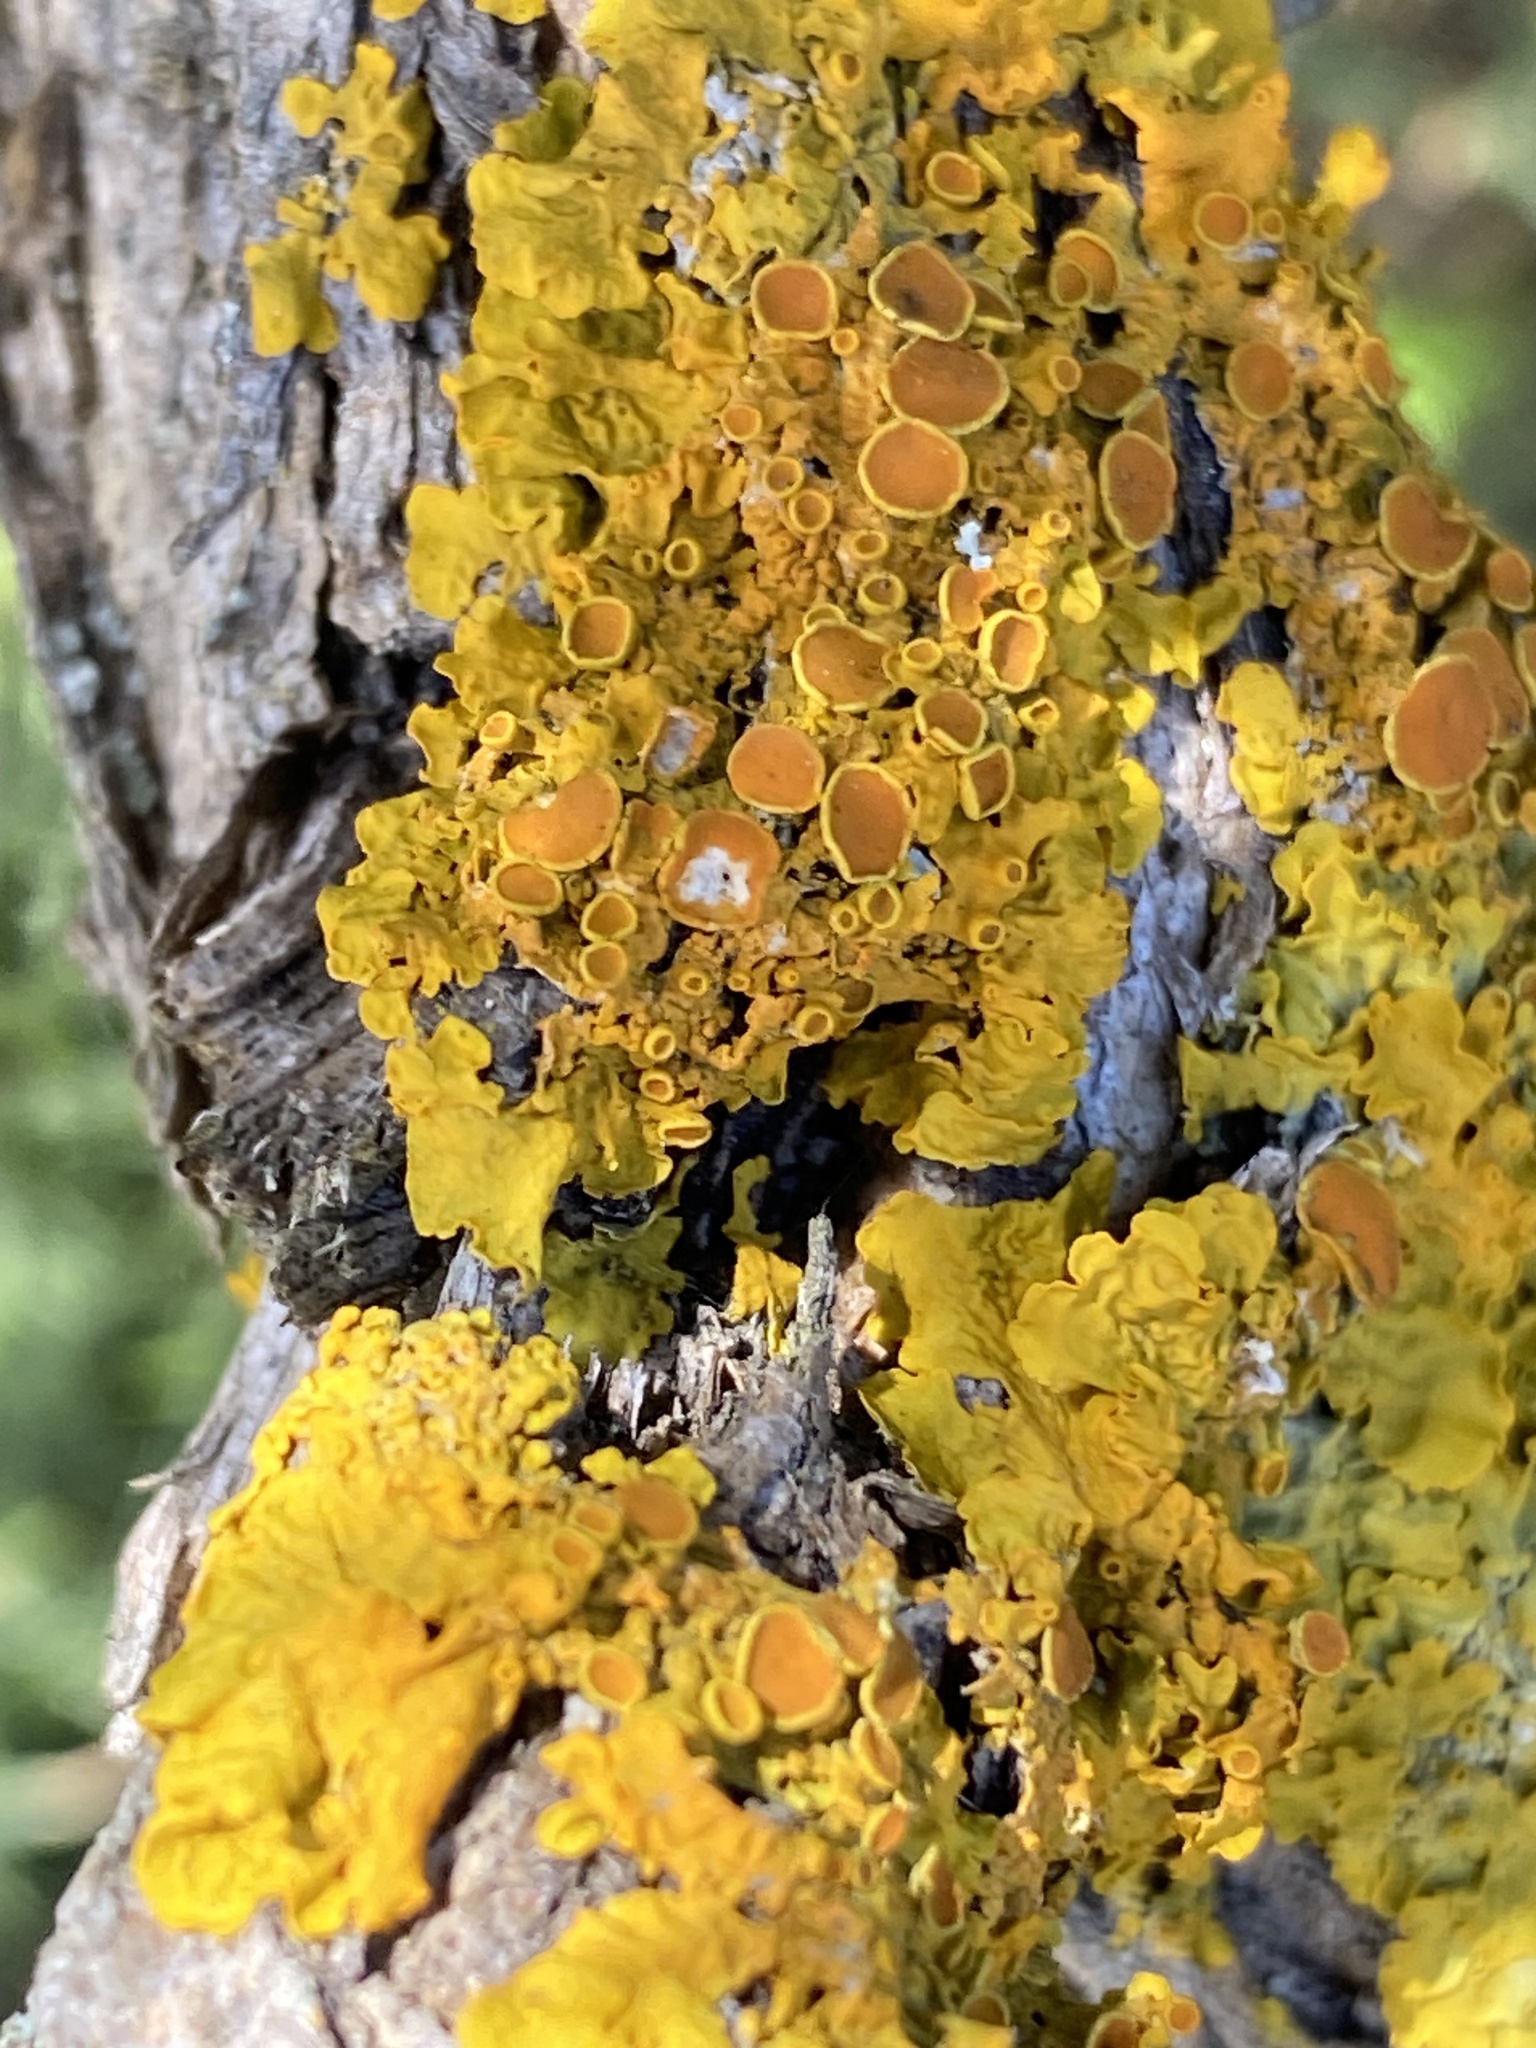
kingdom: Fungi
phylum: Ascomycota
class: Lecanoromycetes
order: Teloschistales
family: Teloschistaceae
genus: Xanthoria
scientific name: Xanthoria parietina
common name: Common orange lichen
